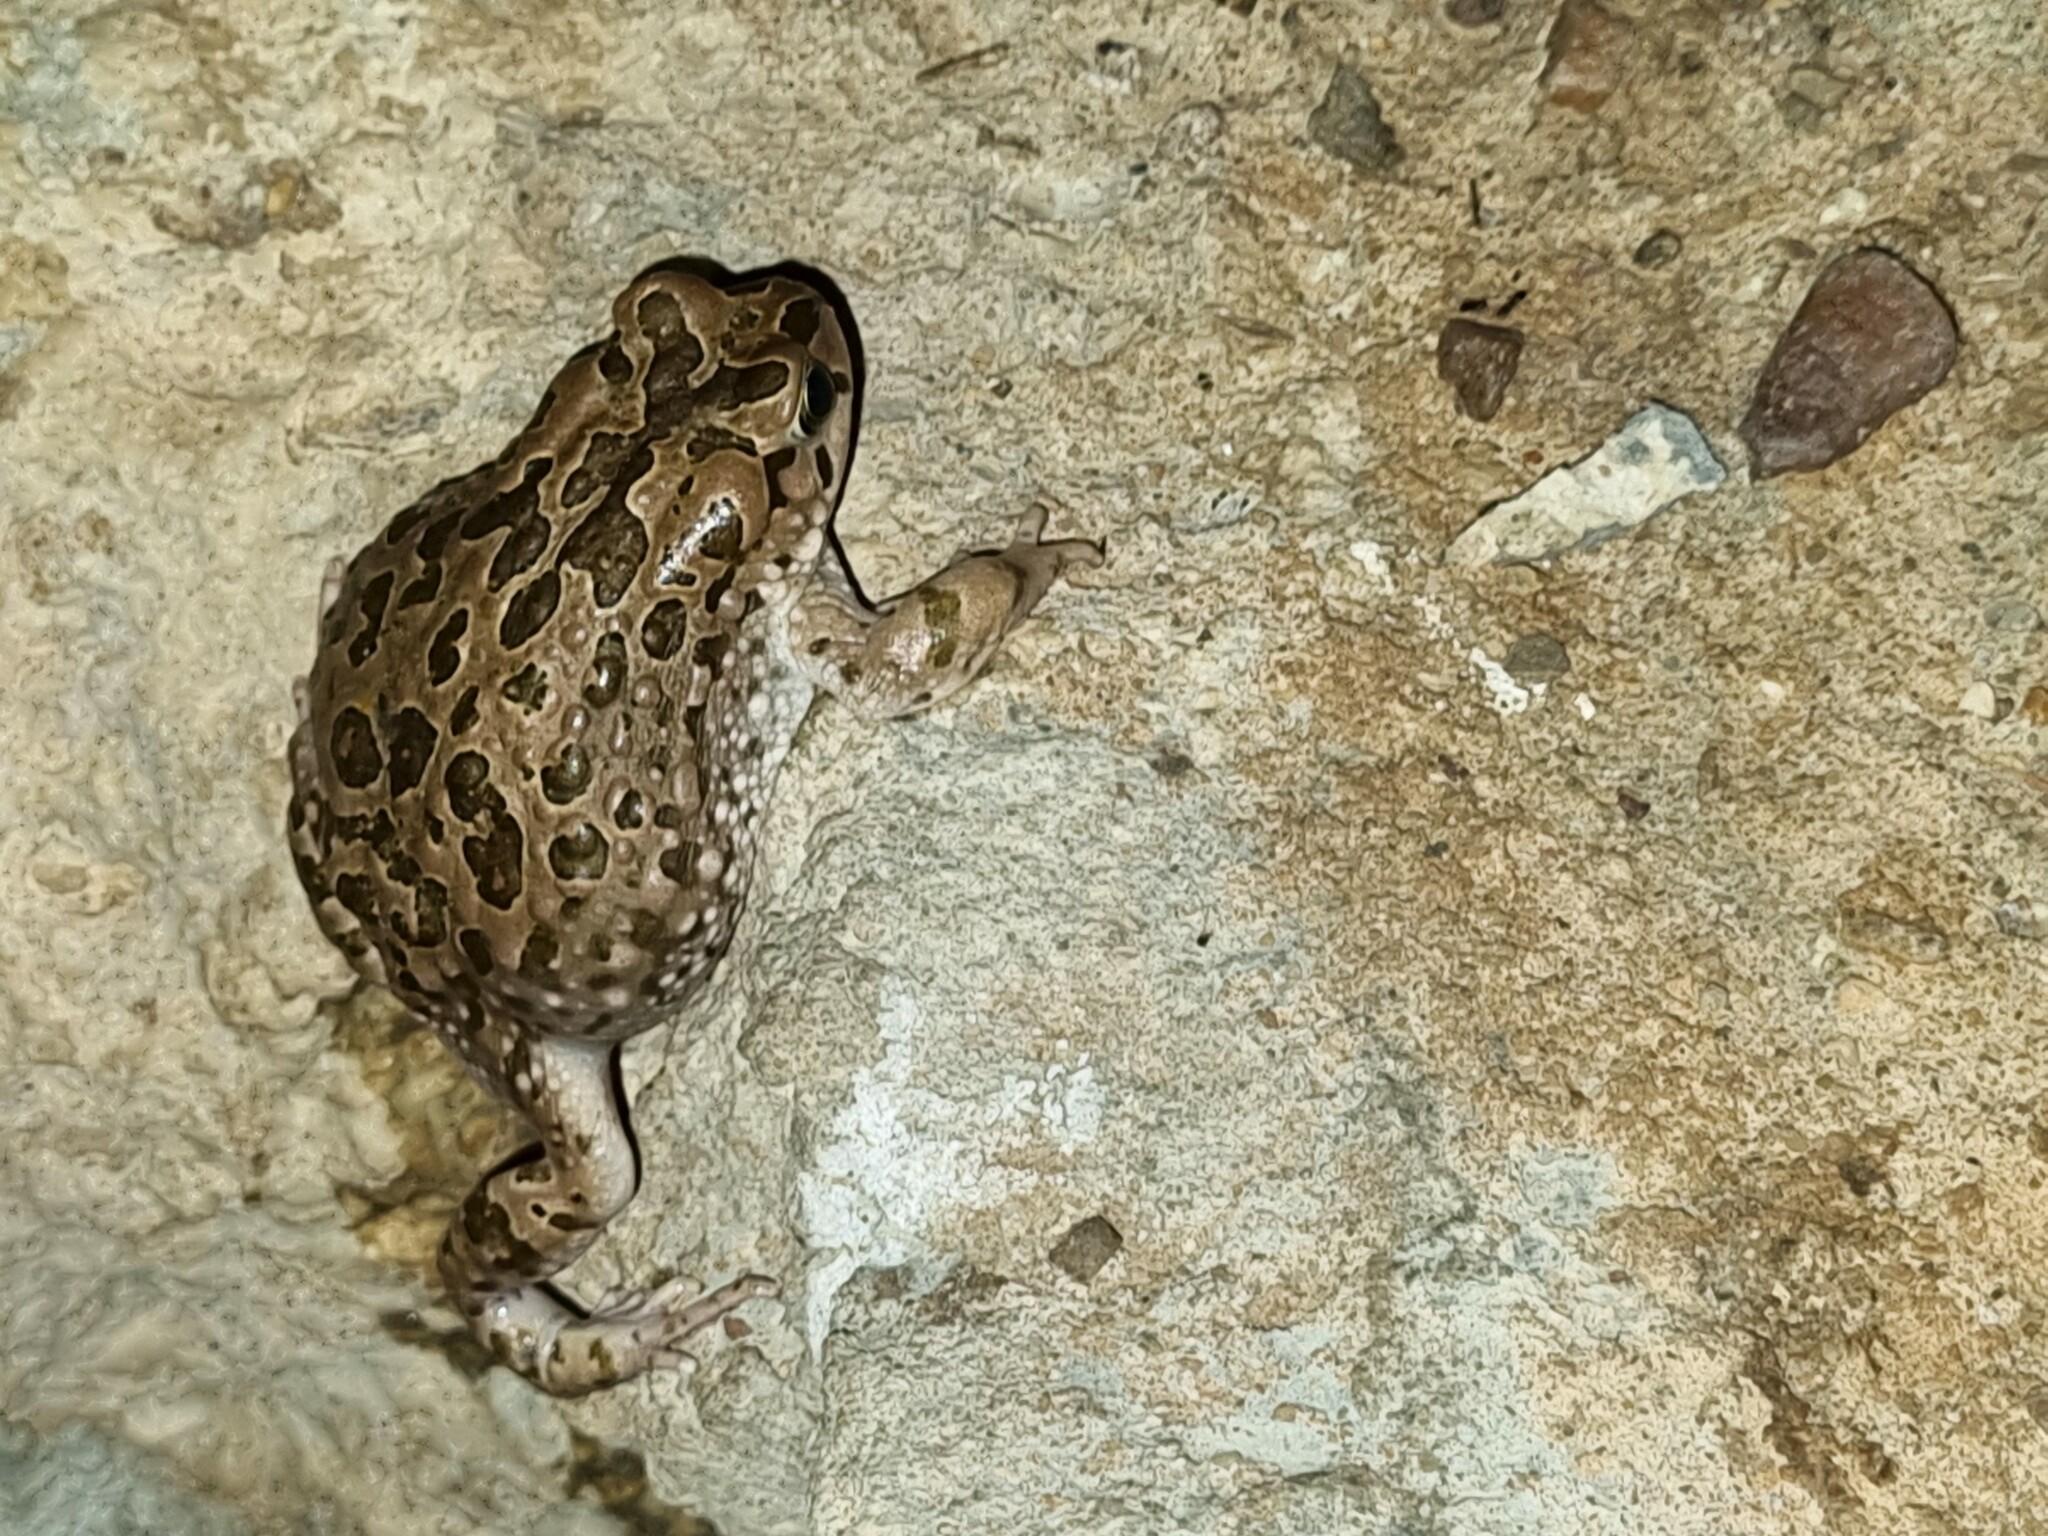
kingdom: Animalia
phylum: Chordata
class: Amphibia
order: Anura
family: Bufonidae
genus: Vandijkophrynus
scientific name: Vandijkophrynus gariepensis
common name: Gariep toad
